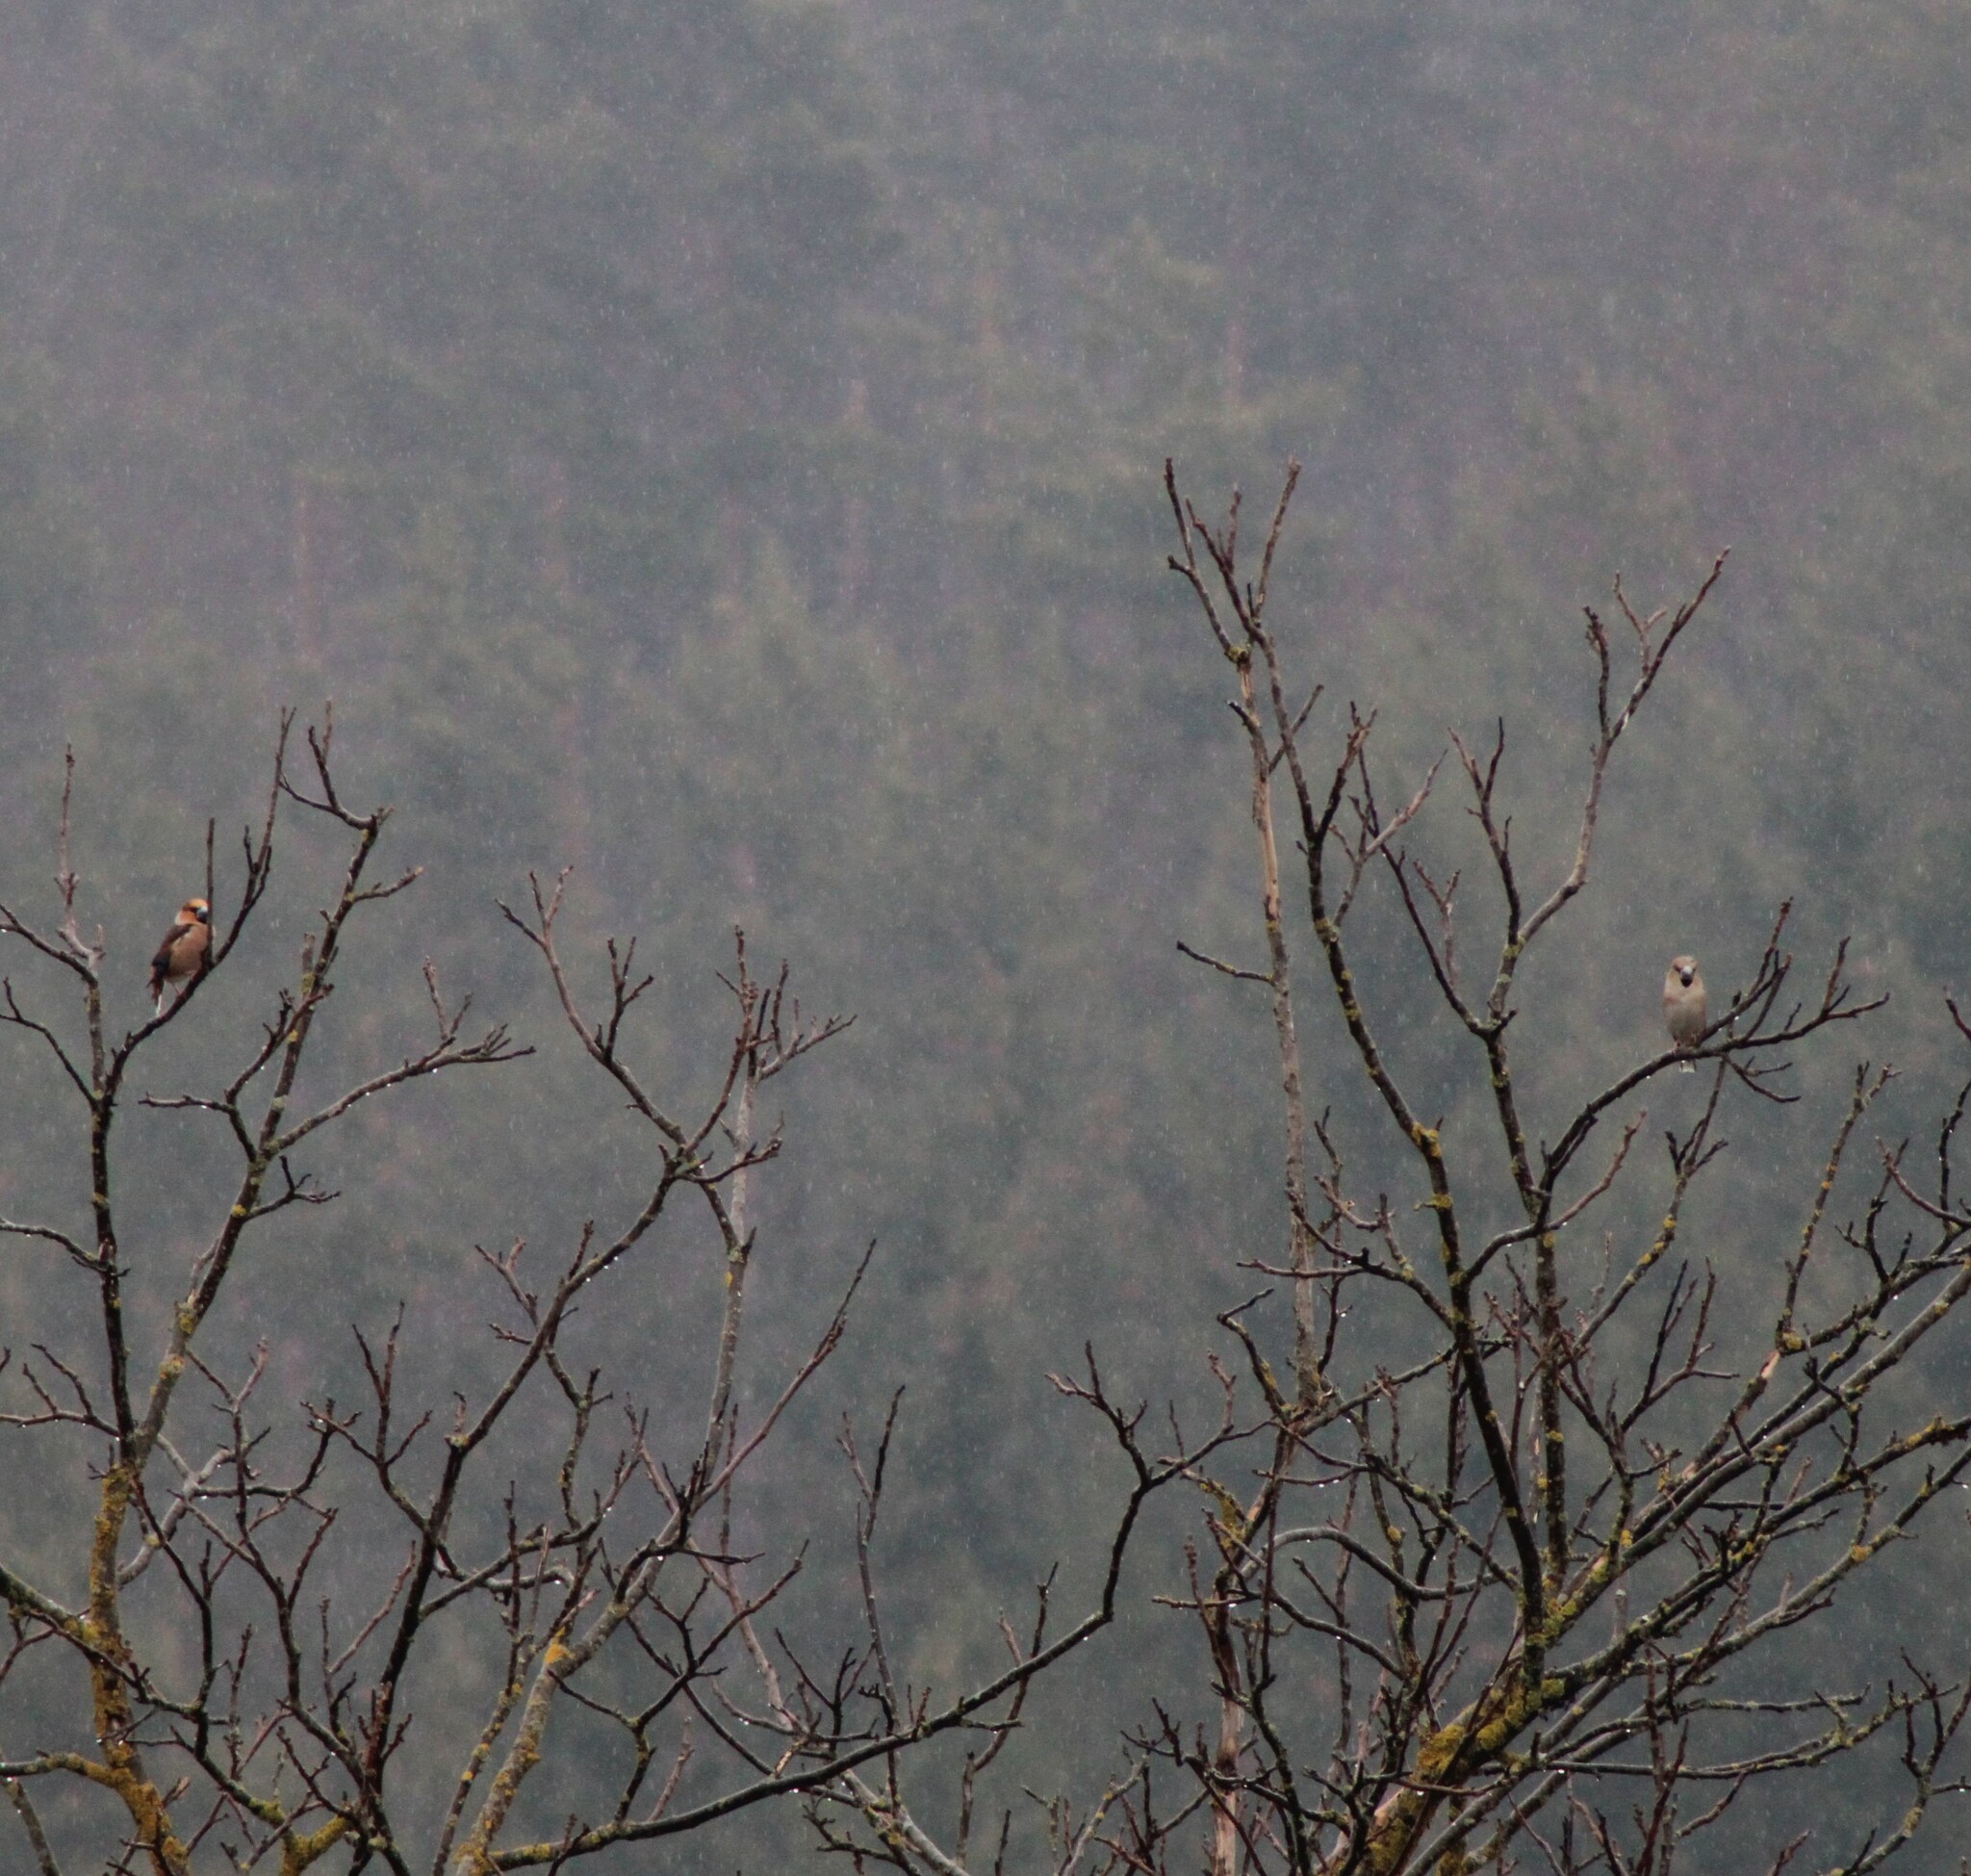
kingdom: Animalia
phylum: Chordata
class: Aves
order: Passeriformes
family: Fringillidae
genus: Coccothraustes
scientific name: Coccothraustes coccothraustes
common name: Hawfinch
